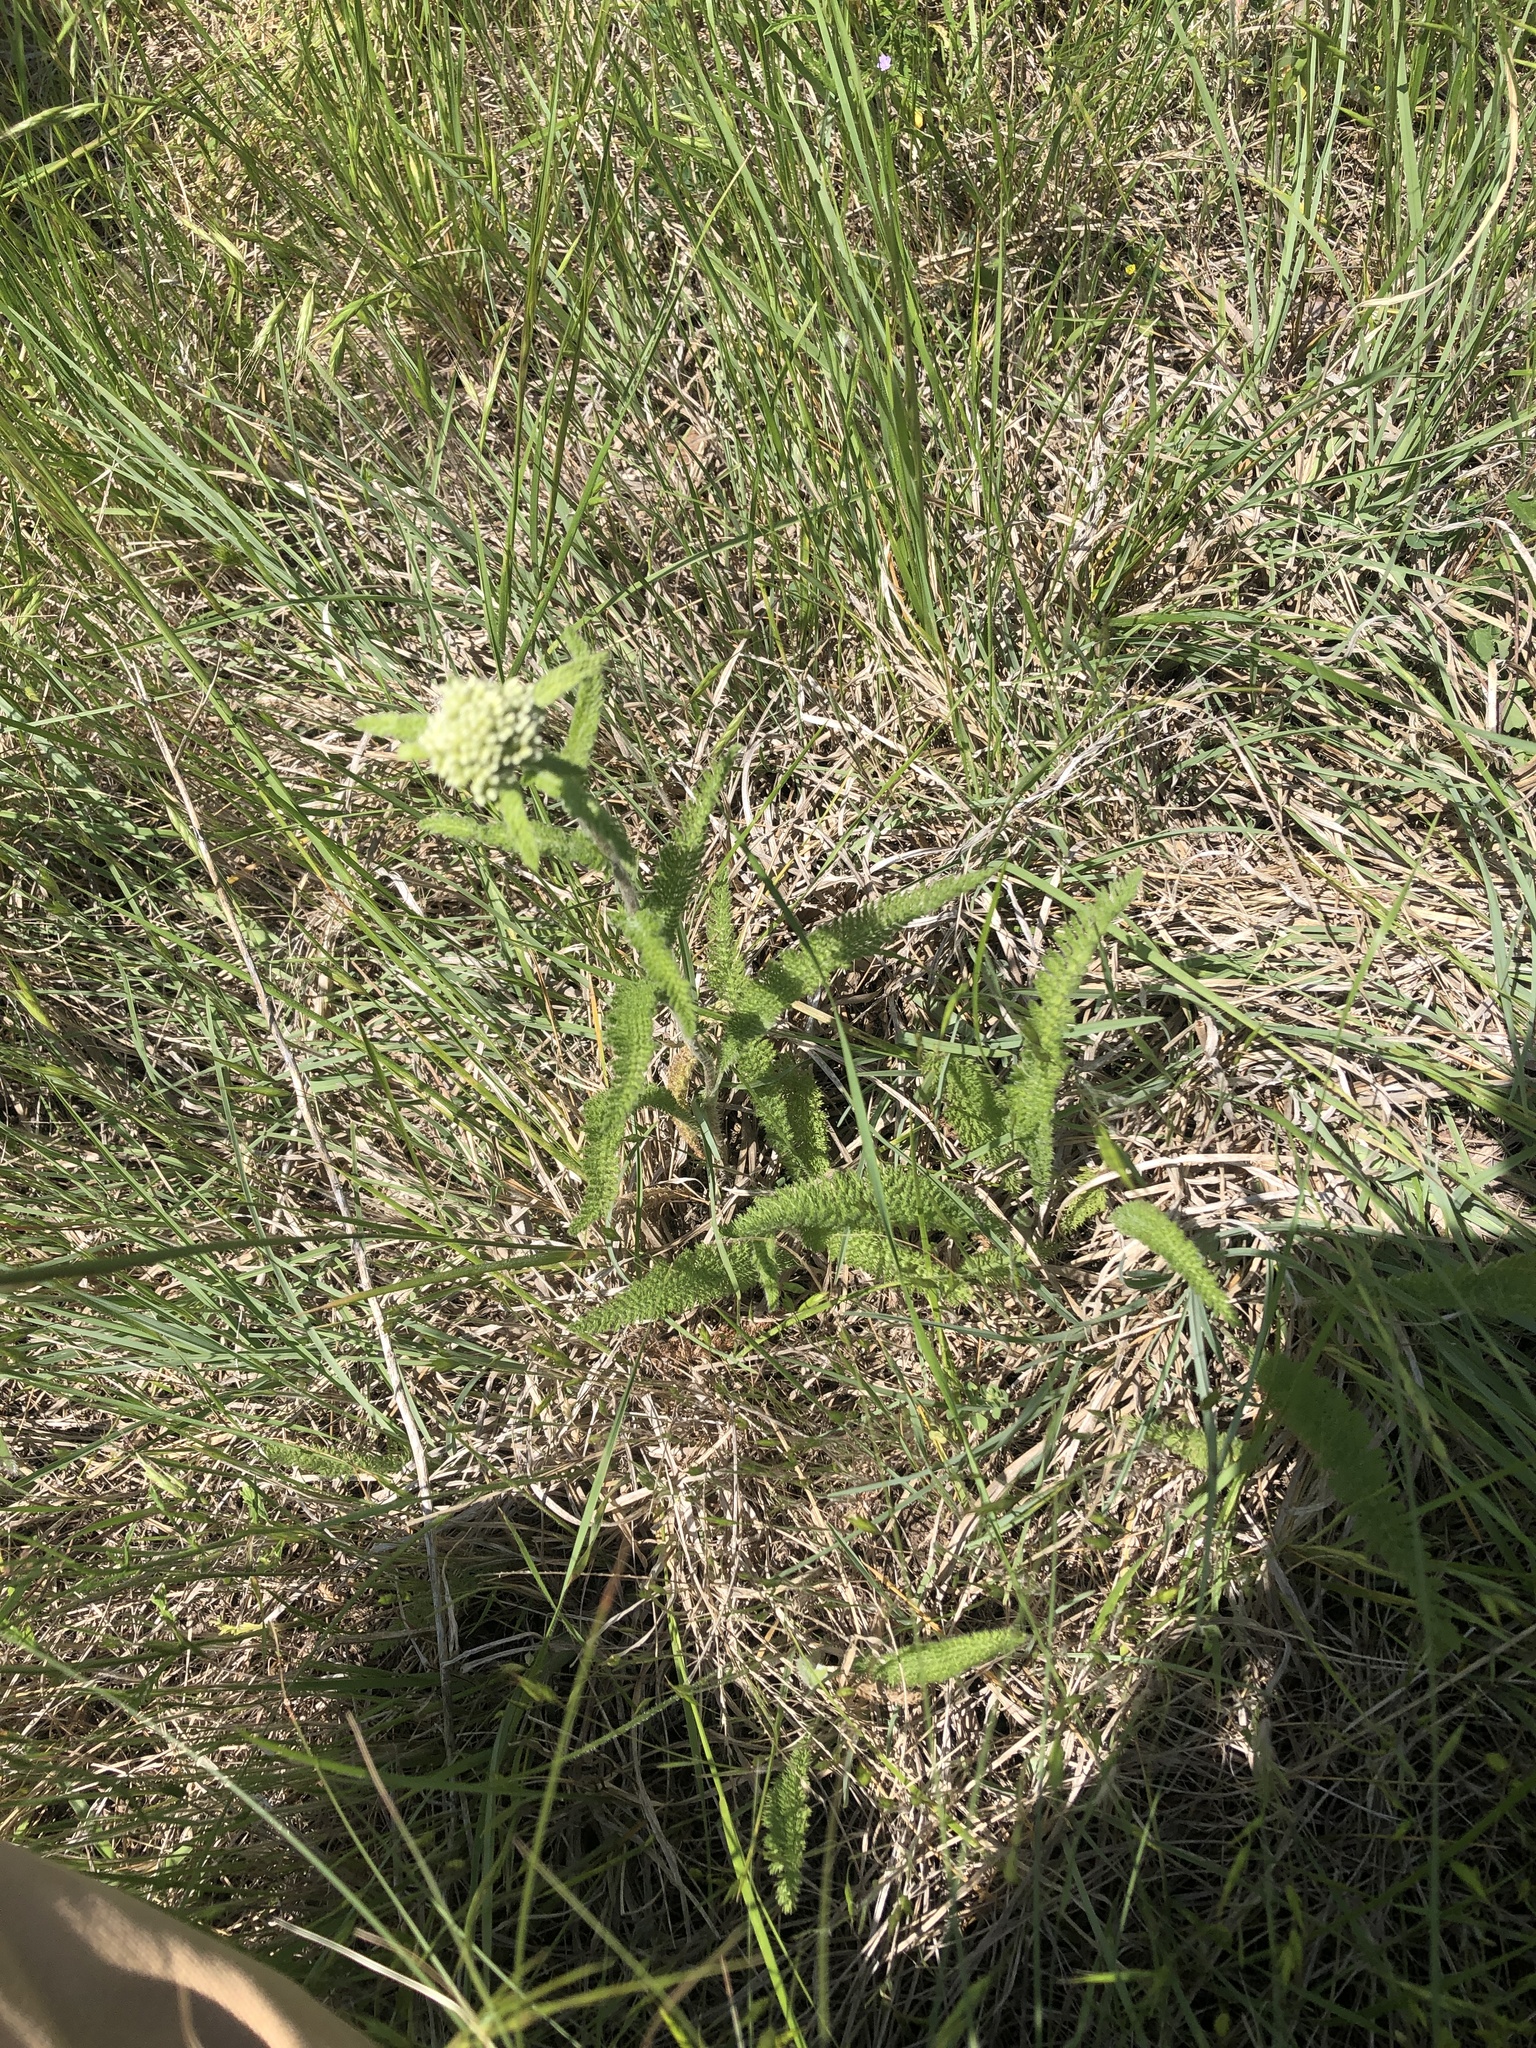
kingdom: Plantae
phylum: Tracheophyta
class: Magnoliopsida
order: Asterales
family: Asteraceae
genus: Achillea
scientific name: Achillea millefolium
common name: Yarrow
